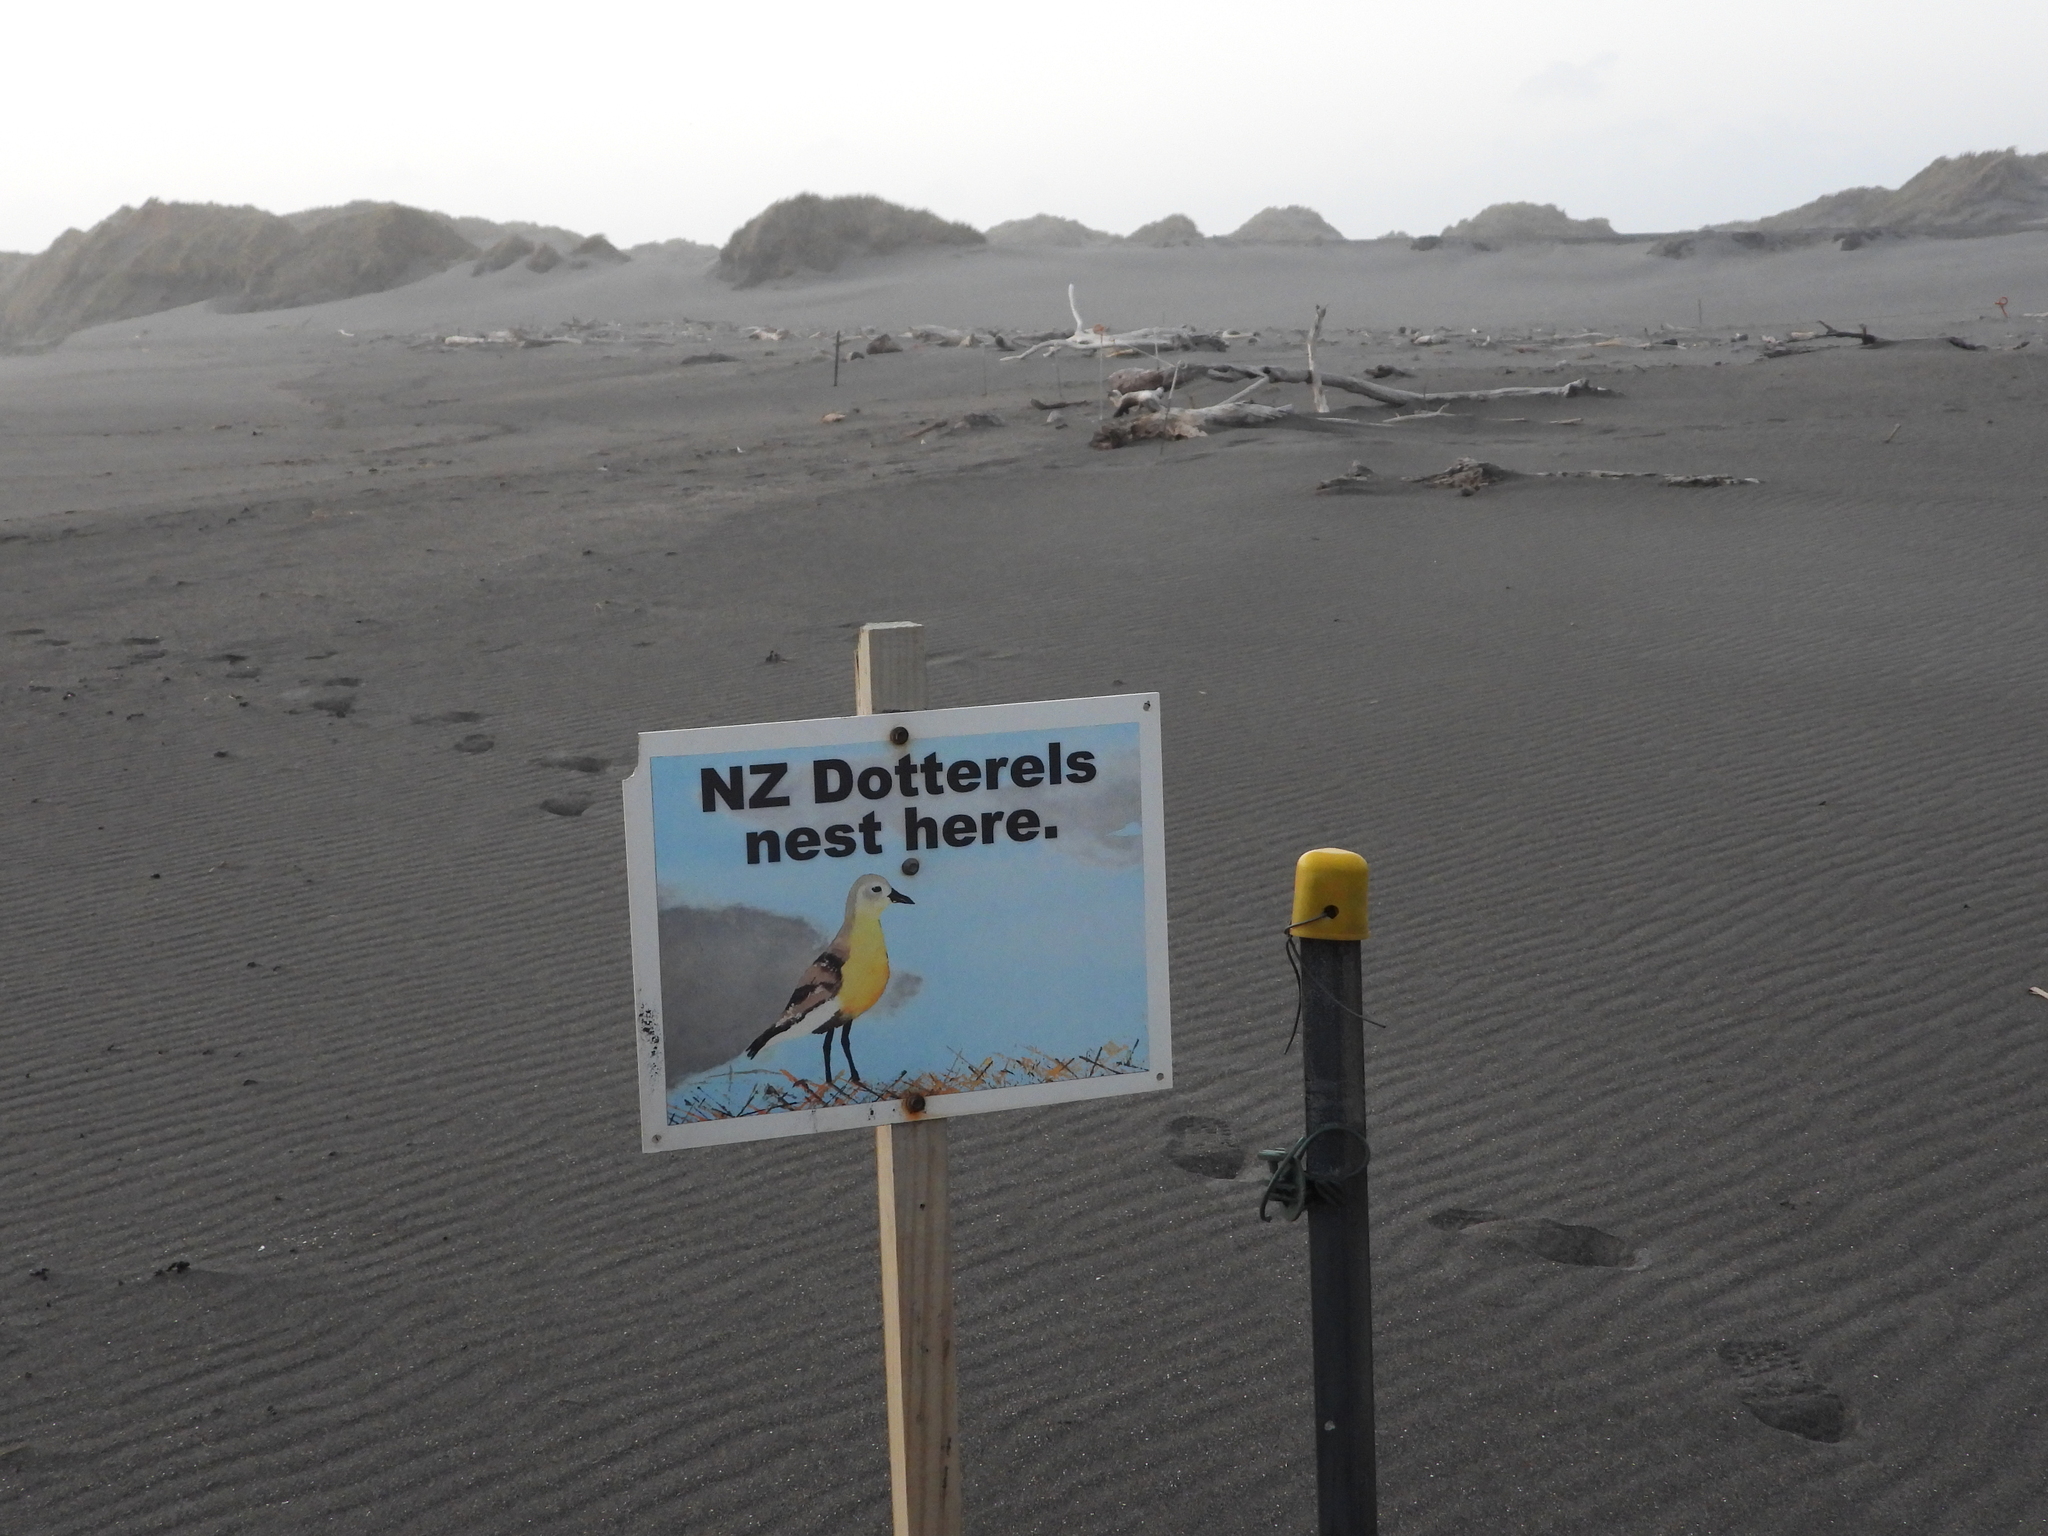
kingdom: Animalia
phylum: Chordata
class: Aves
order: Charadriiformes
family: Charadriidae
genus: Anarhynchus
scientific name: Anarhynchus
